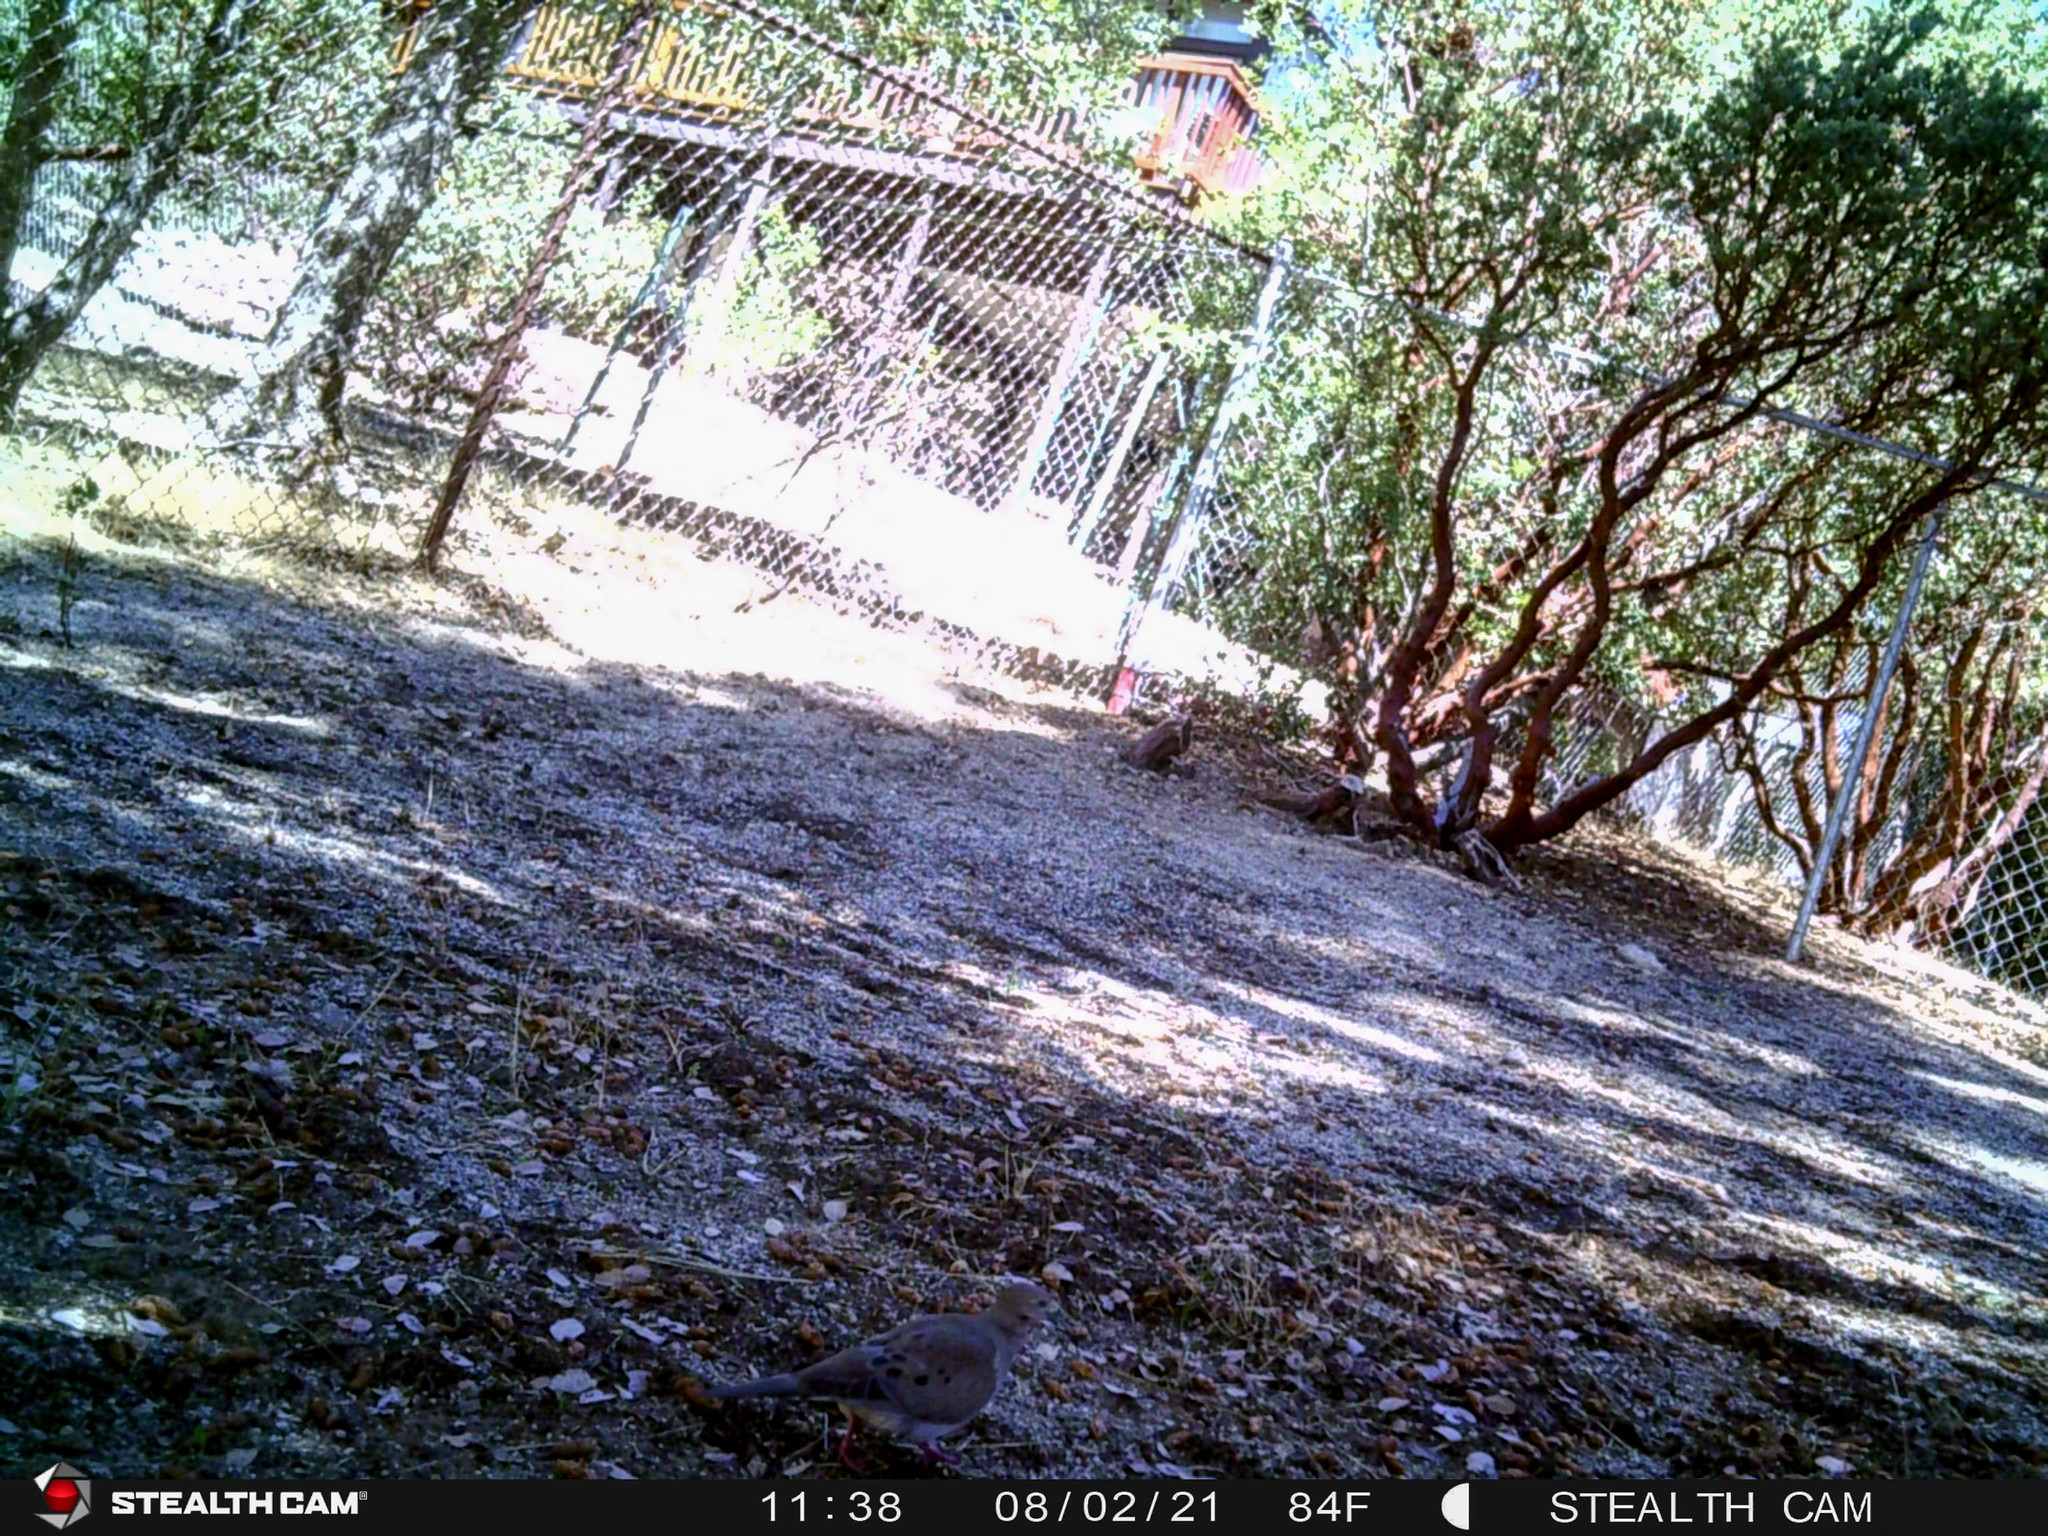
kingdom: Animalia
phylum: Chordata
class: Aves
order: Columbiformes
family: Columbidae
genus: Zenaida
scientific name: Zenaida macroura
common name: Mourning dove
